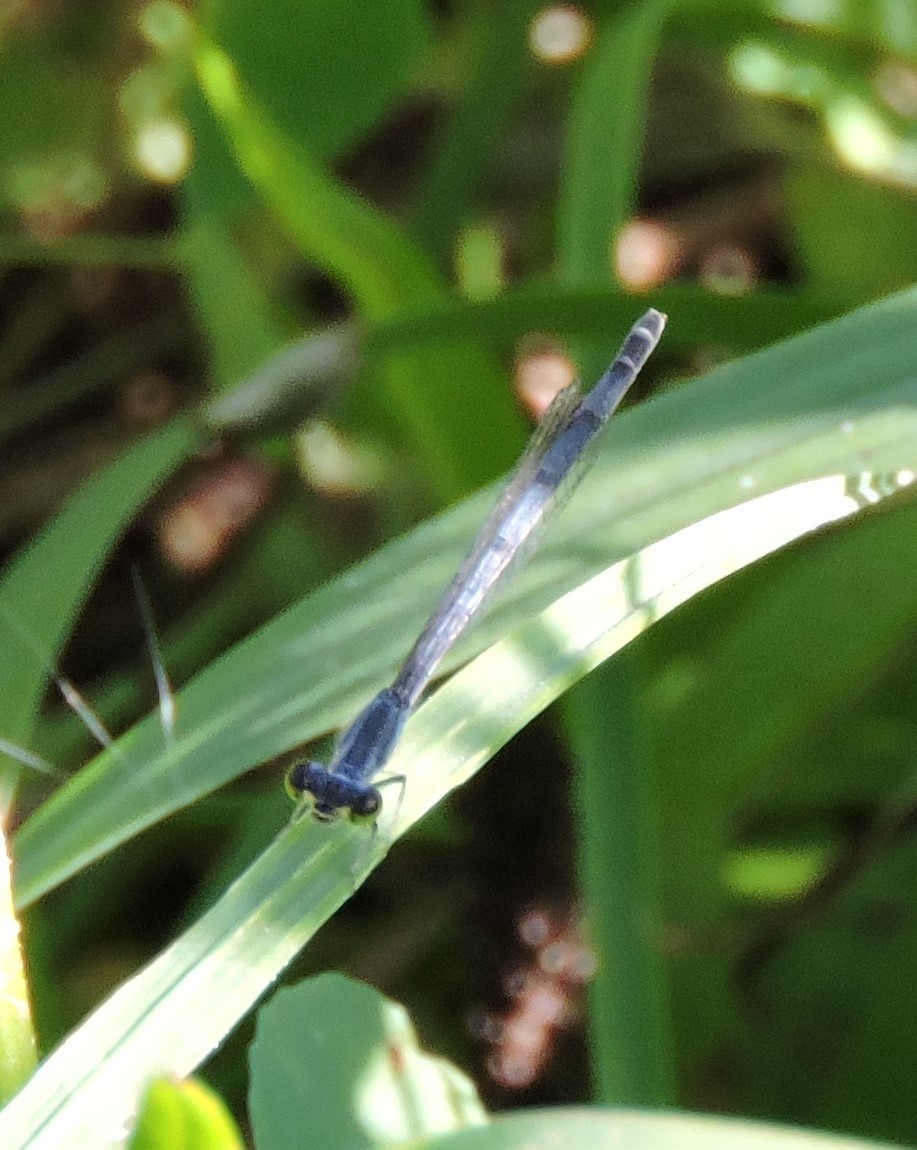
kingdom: Animalia
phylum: Arthropoda
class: Insecta
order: Odonata
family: Coenagrionidae
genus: Ischnura
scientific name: Ischnura verticalis
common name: Eastern forktail
